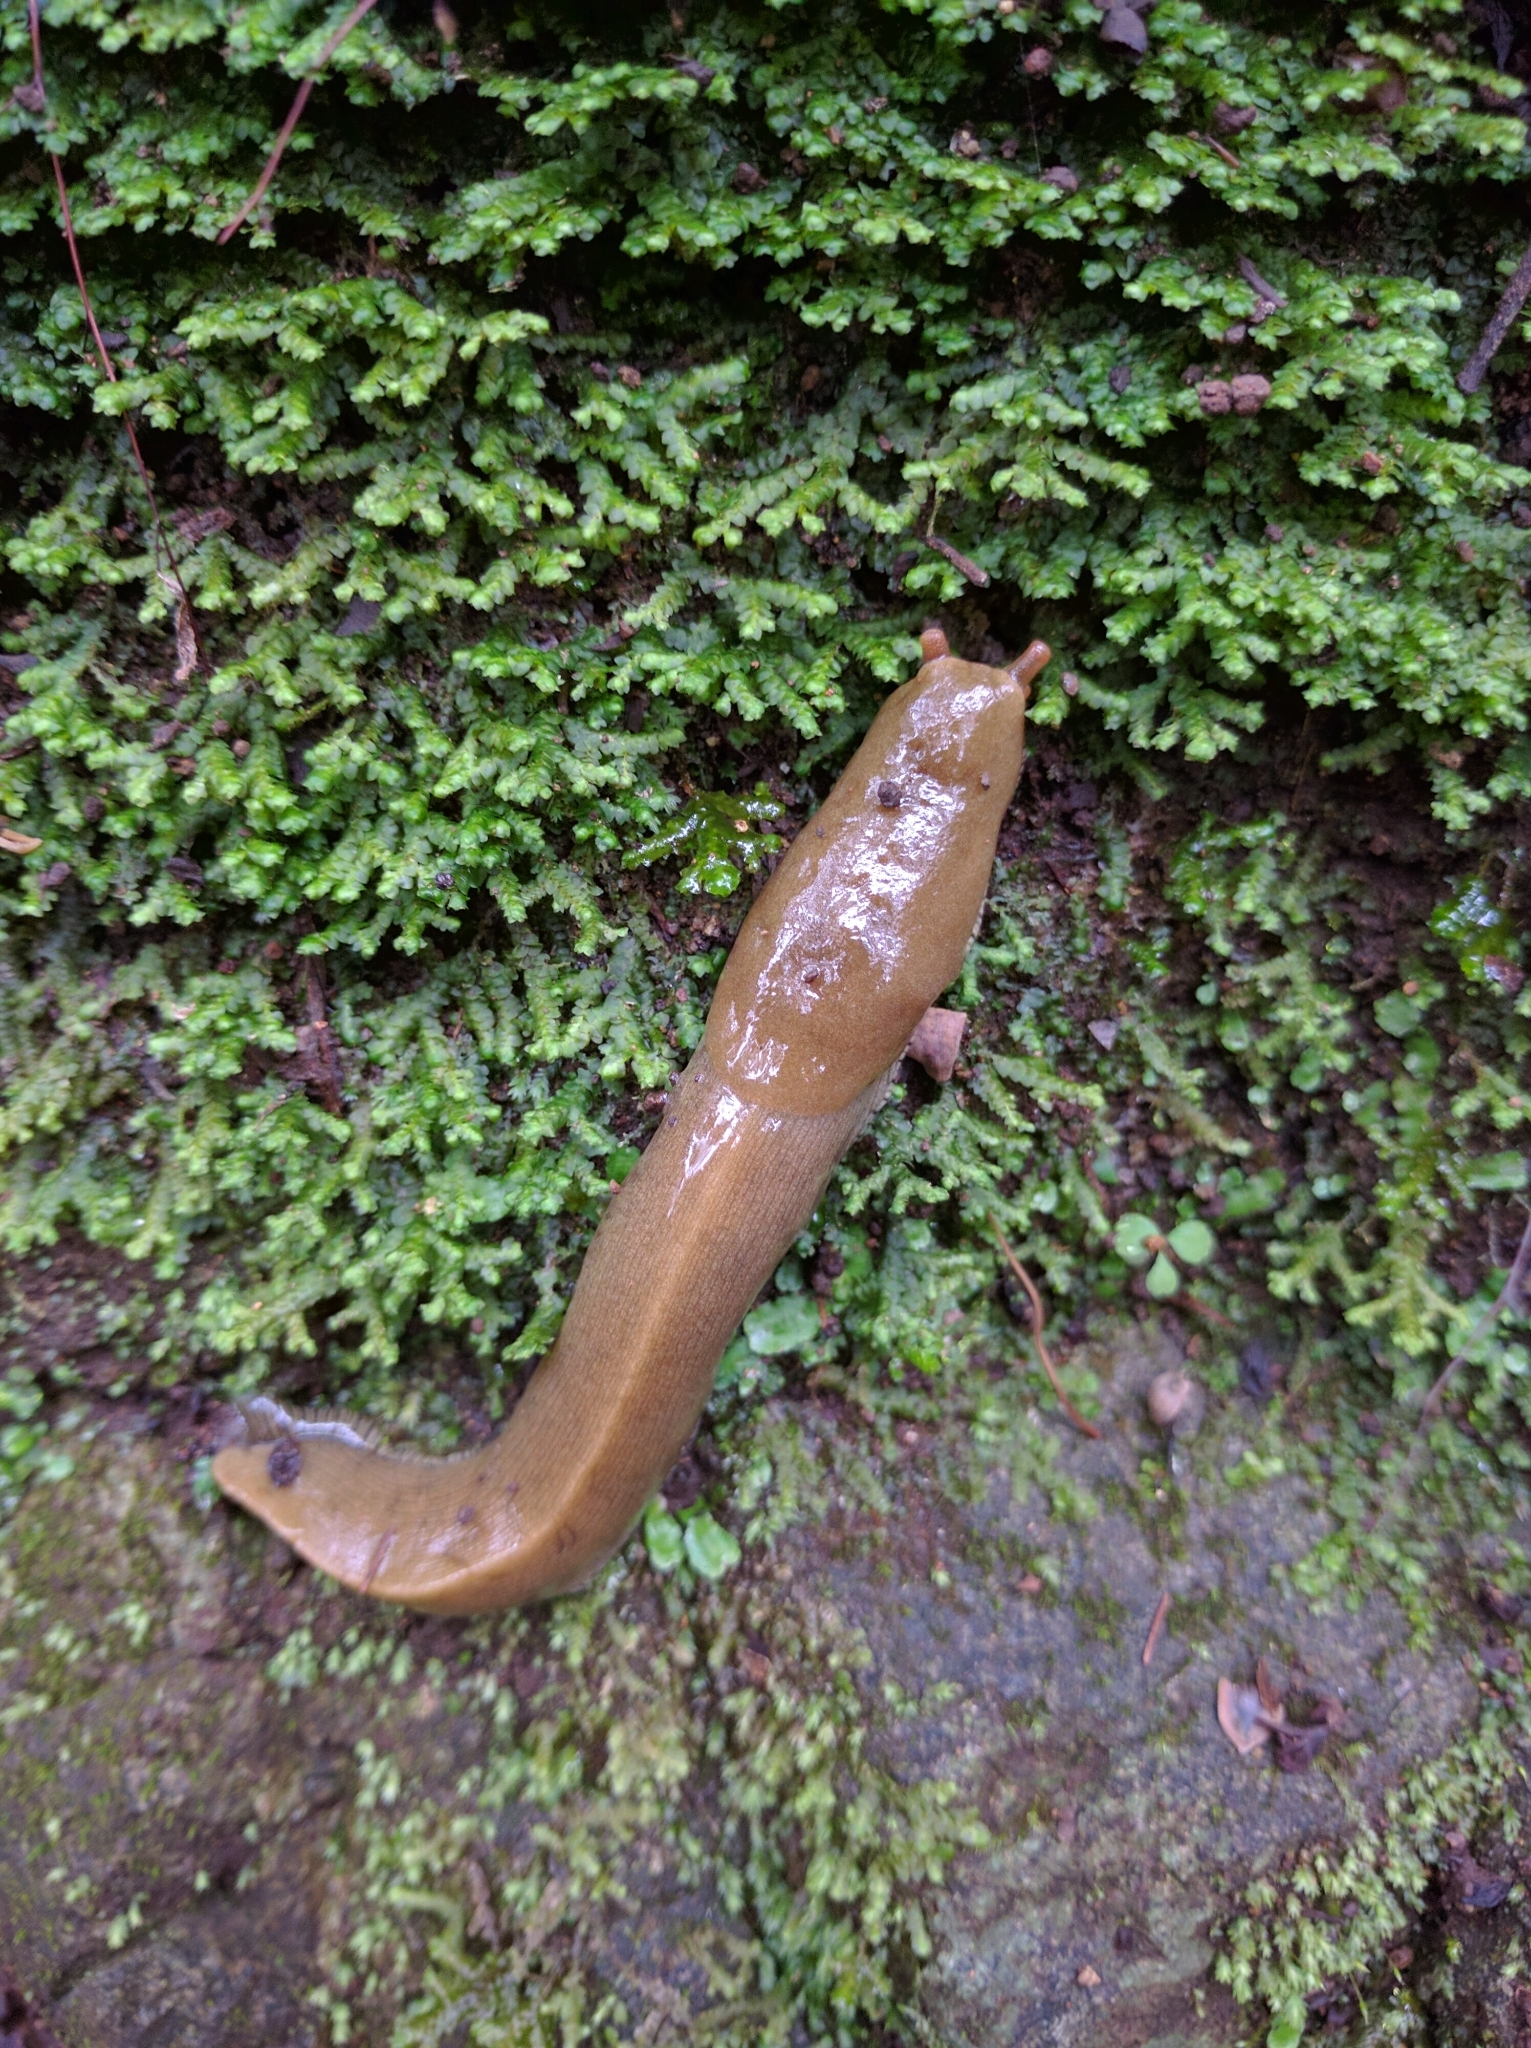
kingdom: Animalia
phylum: Mollusca
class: Gastropoda
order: Stylommatophora
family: Ariolimacidae
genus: Ariolimax
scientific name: Ariolimax buttoni
